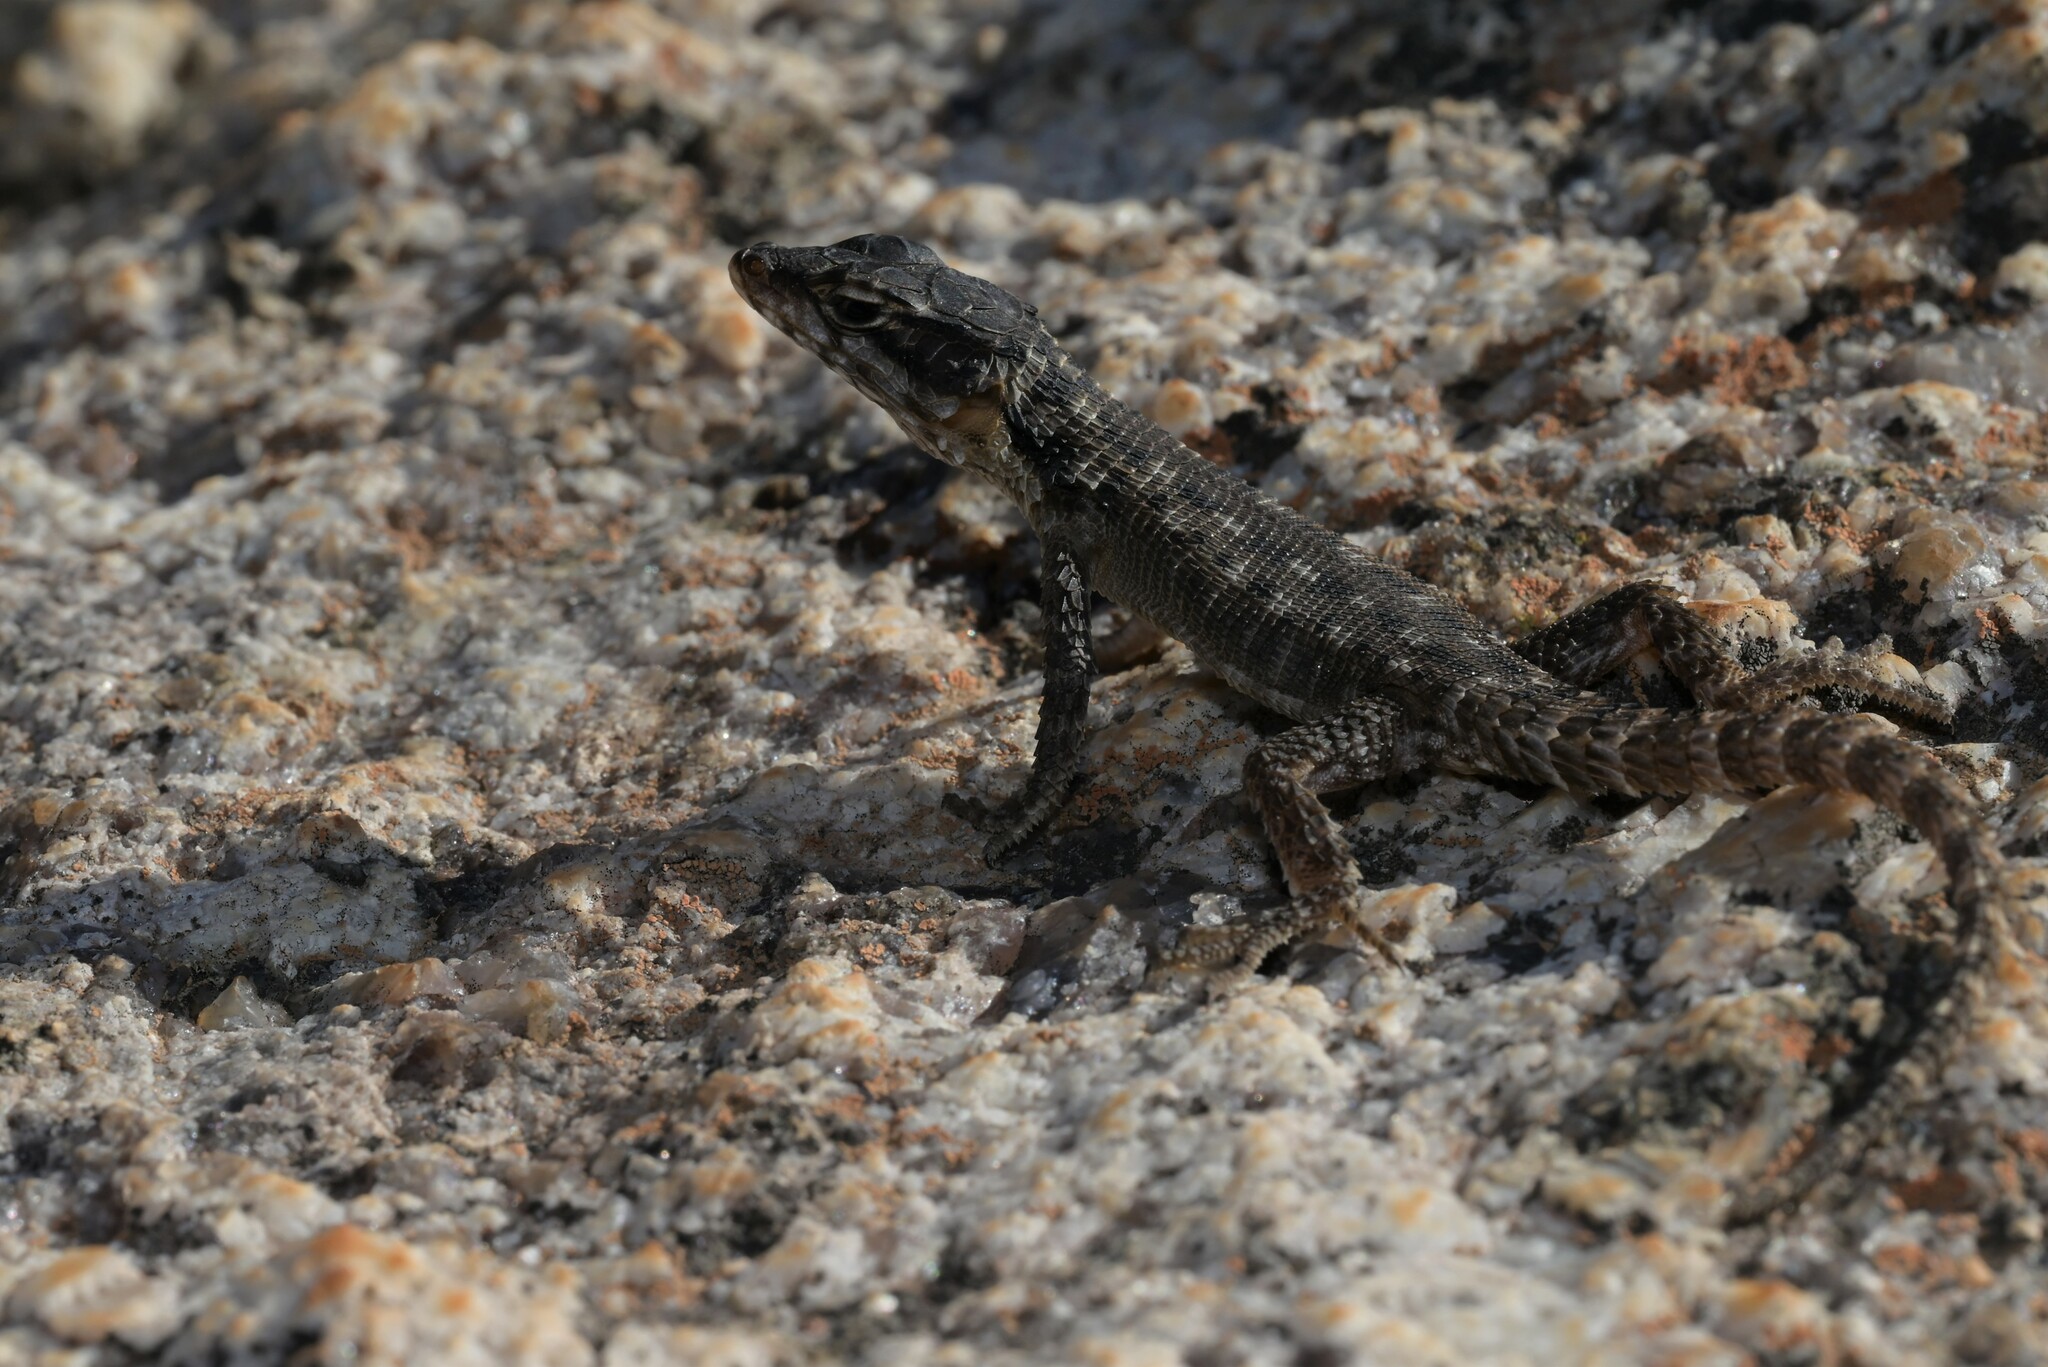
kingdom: Animalia
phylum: Chordata
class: Squamata
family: Cordylidae
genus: Karusasaurus
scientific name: Karusasaurus polyzonus
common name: Karoo girdled lizard
